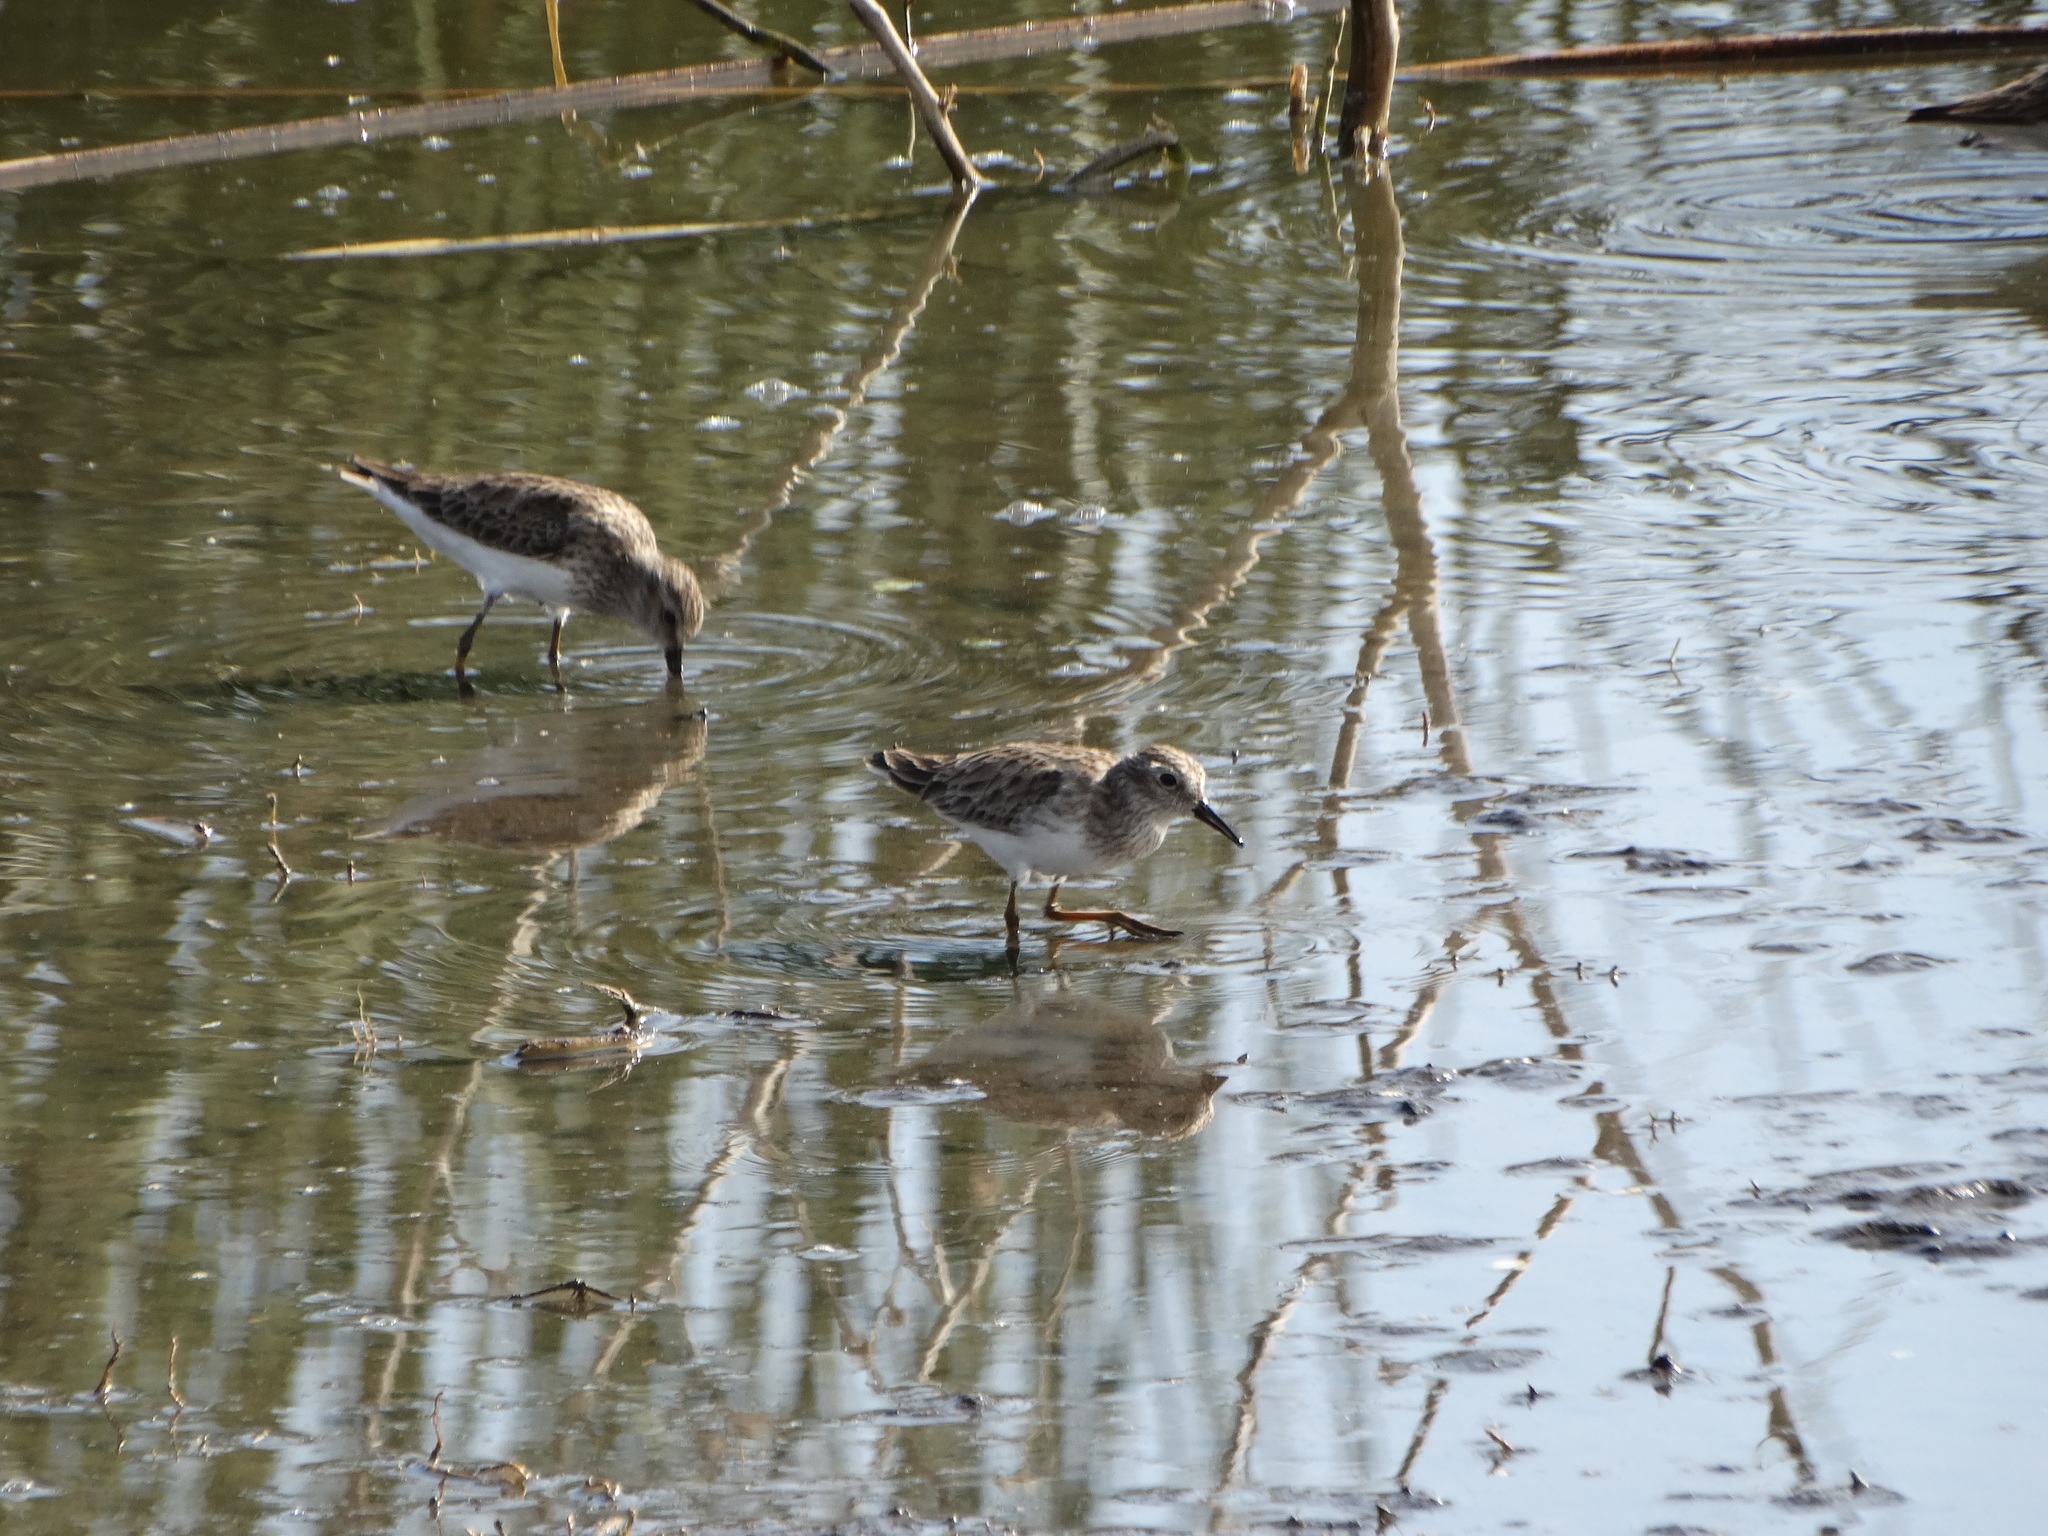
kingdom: Animalia
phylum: Chordata
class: Aves
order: Charadriiformes
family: Scolopacidae
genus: Calidris
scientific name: Calidris minutilla
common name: Least sandpiper
